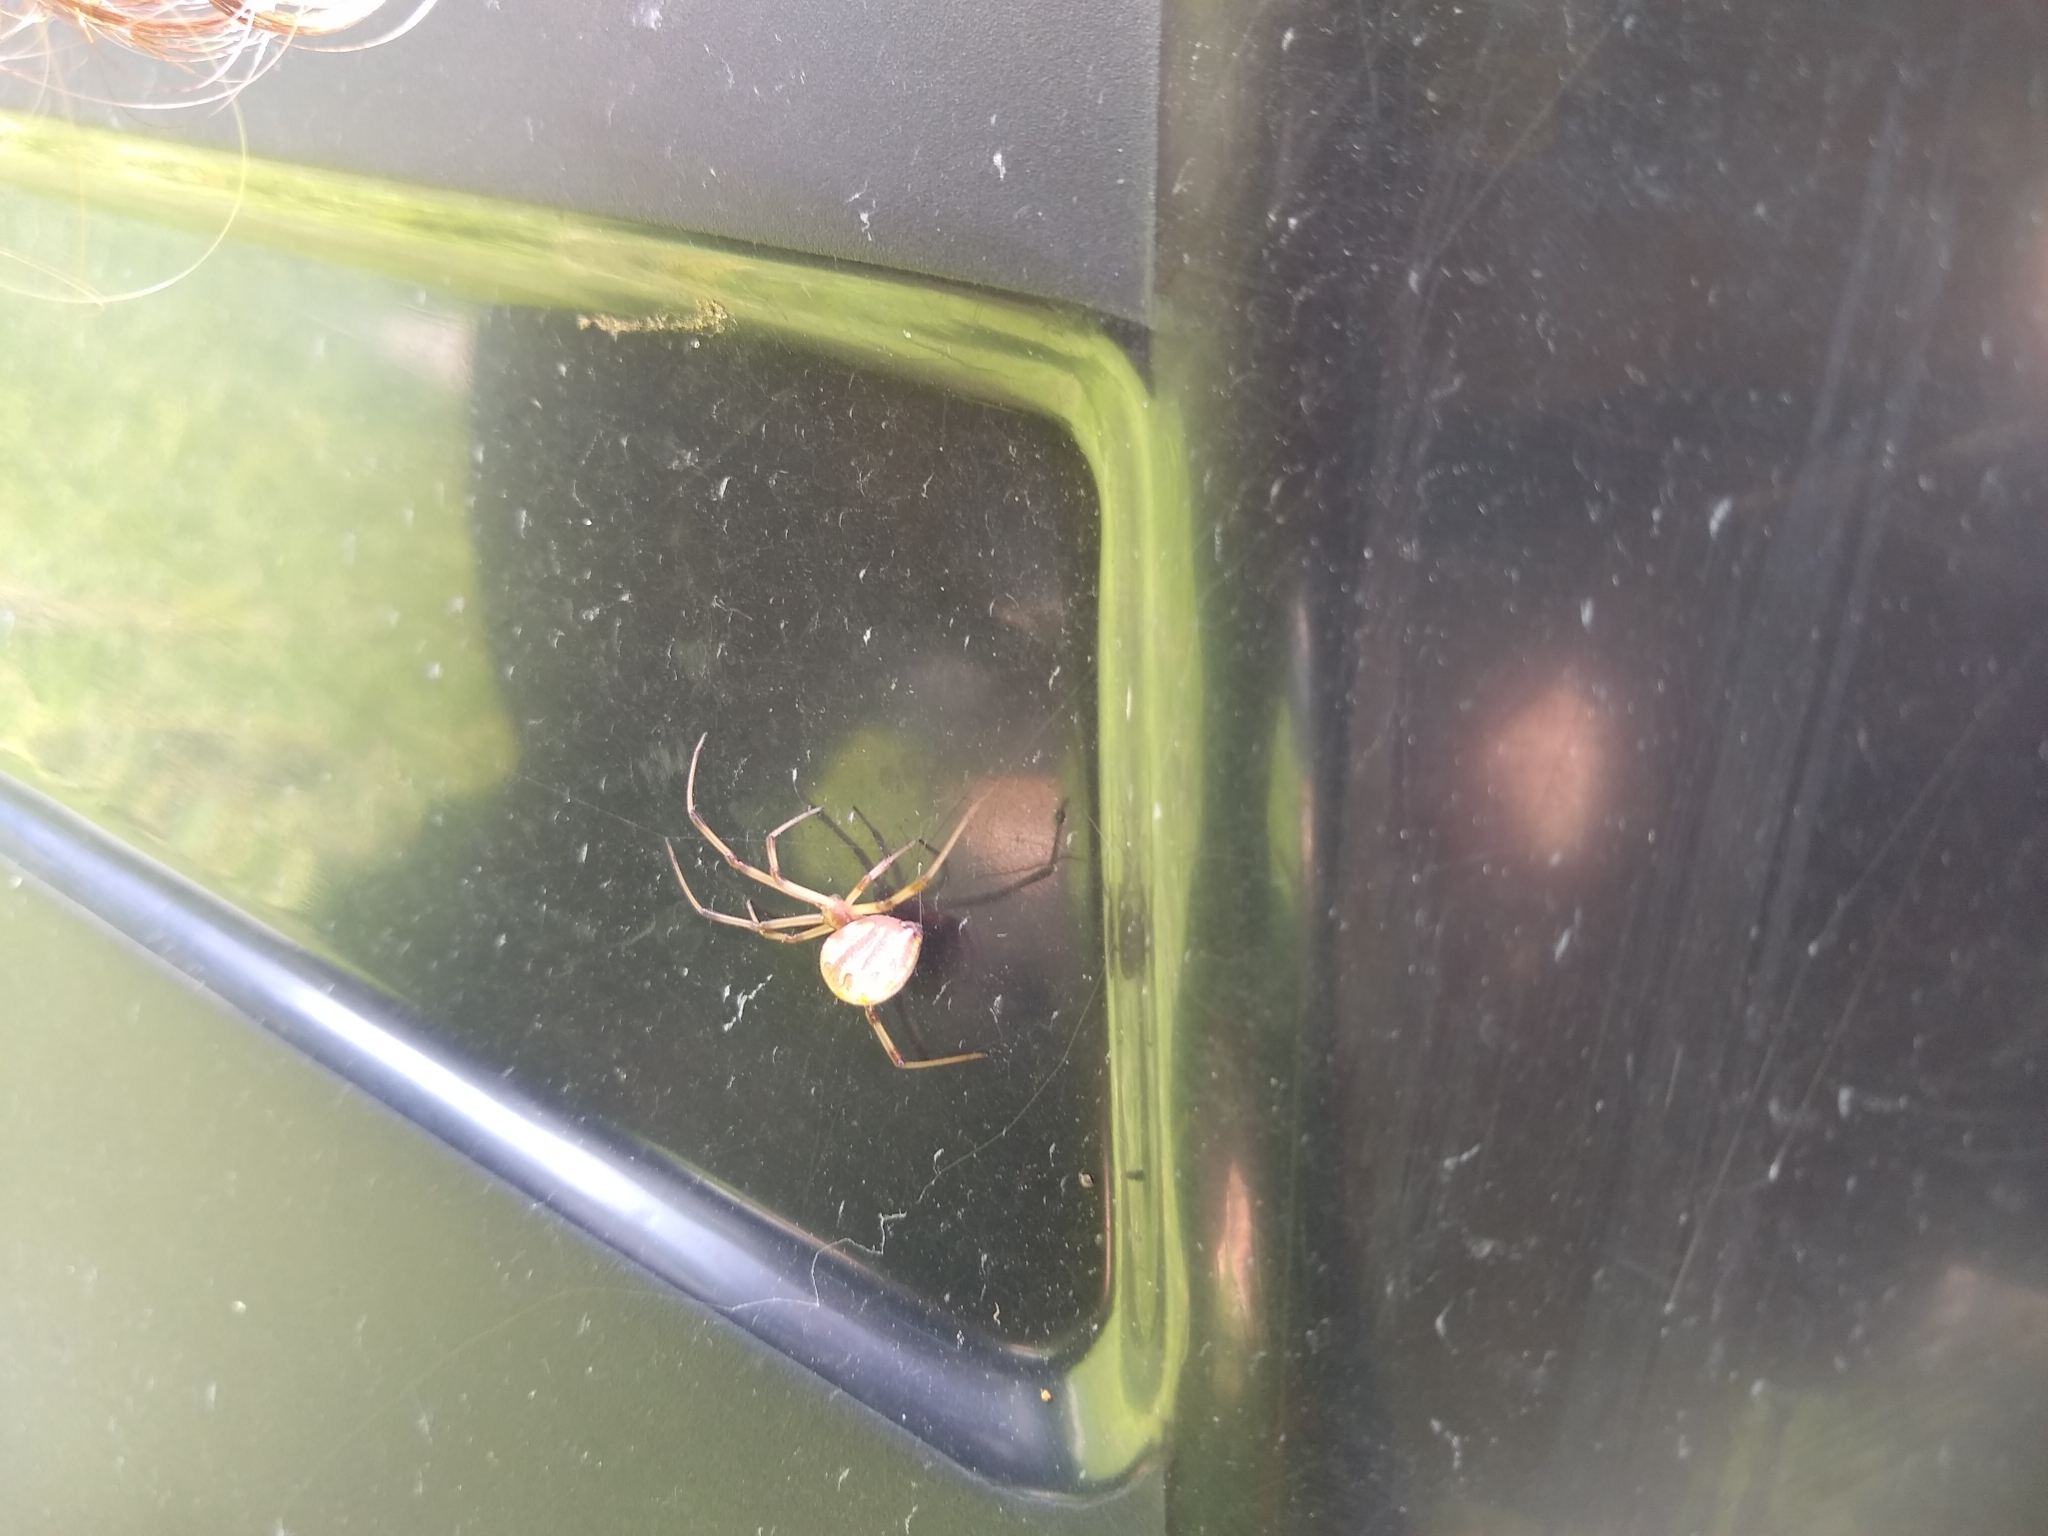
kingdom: Animalia
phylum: Arthropoda
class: Arachnida
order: Araneae
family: Theridiidae
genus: Latrodectus
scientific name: Latrodectus geometricus
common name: Brown widow spider
